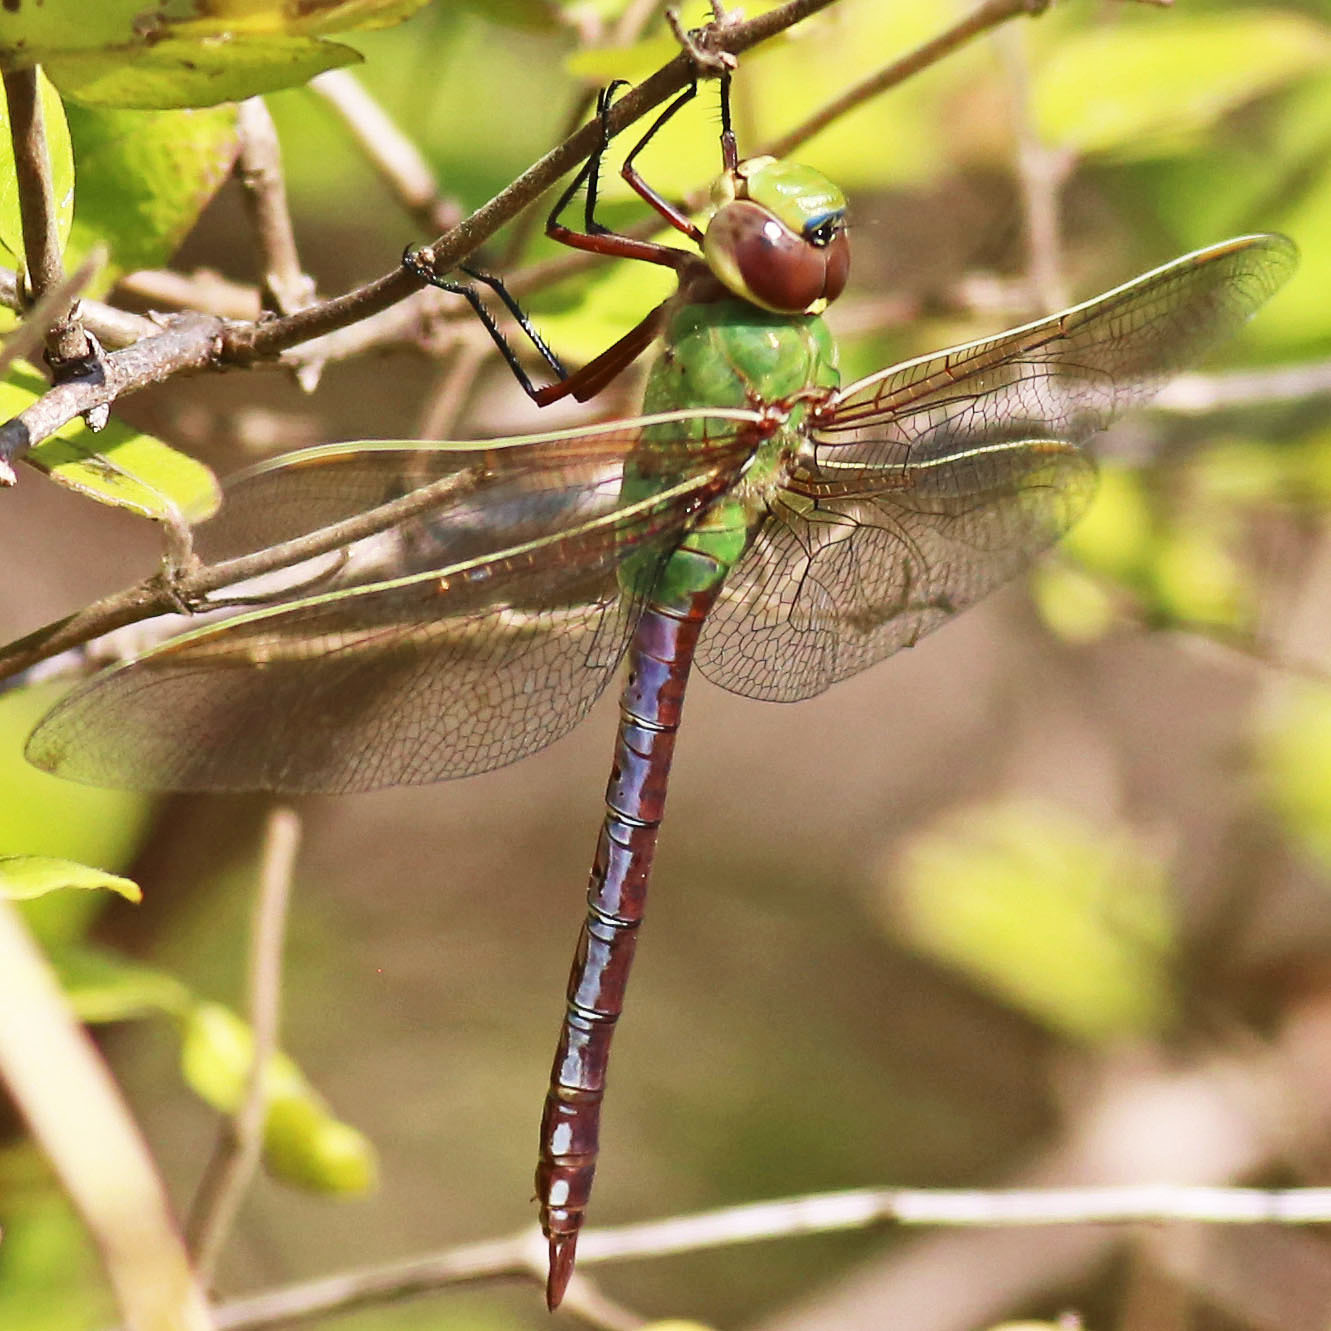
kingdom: Animalia
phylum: Arthropoda
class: Insecta
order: Odonata
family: Aeshnidae
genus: Anax
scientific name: Anax junius
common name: Common green darner
